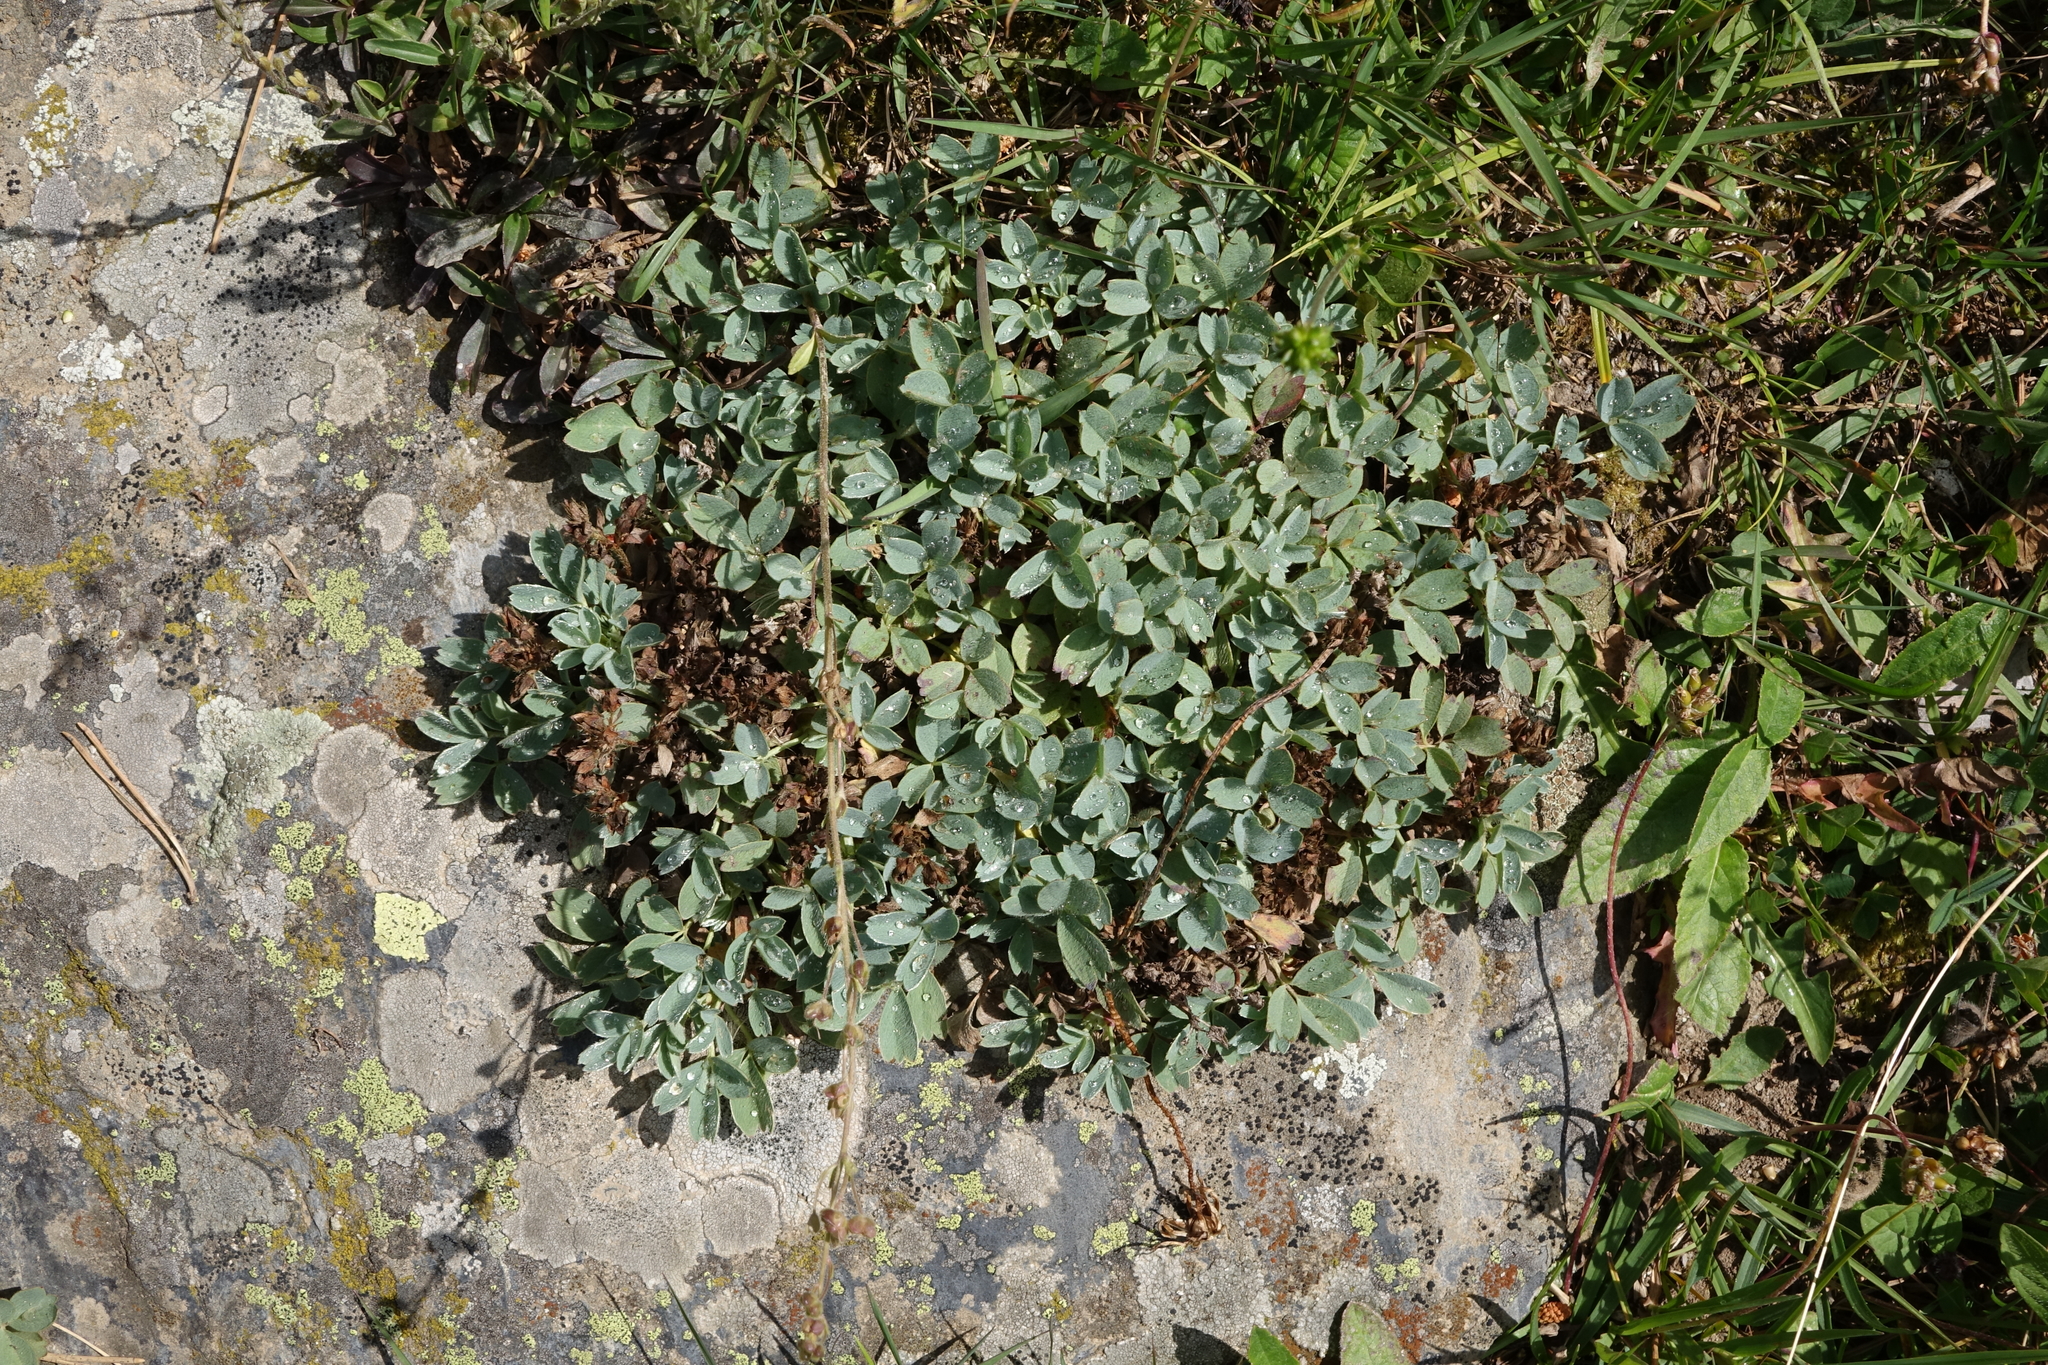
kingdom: Plantae
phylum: Tracheophyta
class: Magnoliopsida
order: Rosales
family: Rosaceae
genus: Sibbaldia
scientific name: Sibbaldia parviflora
